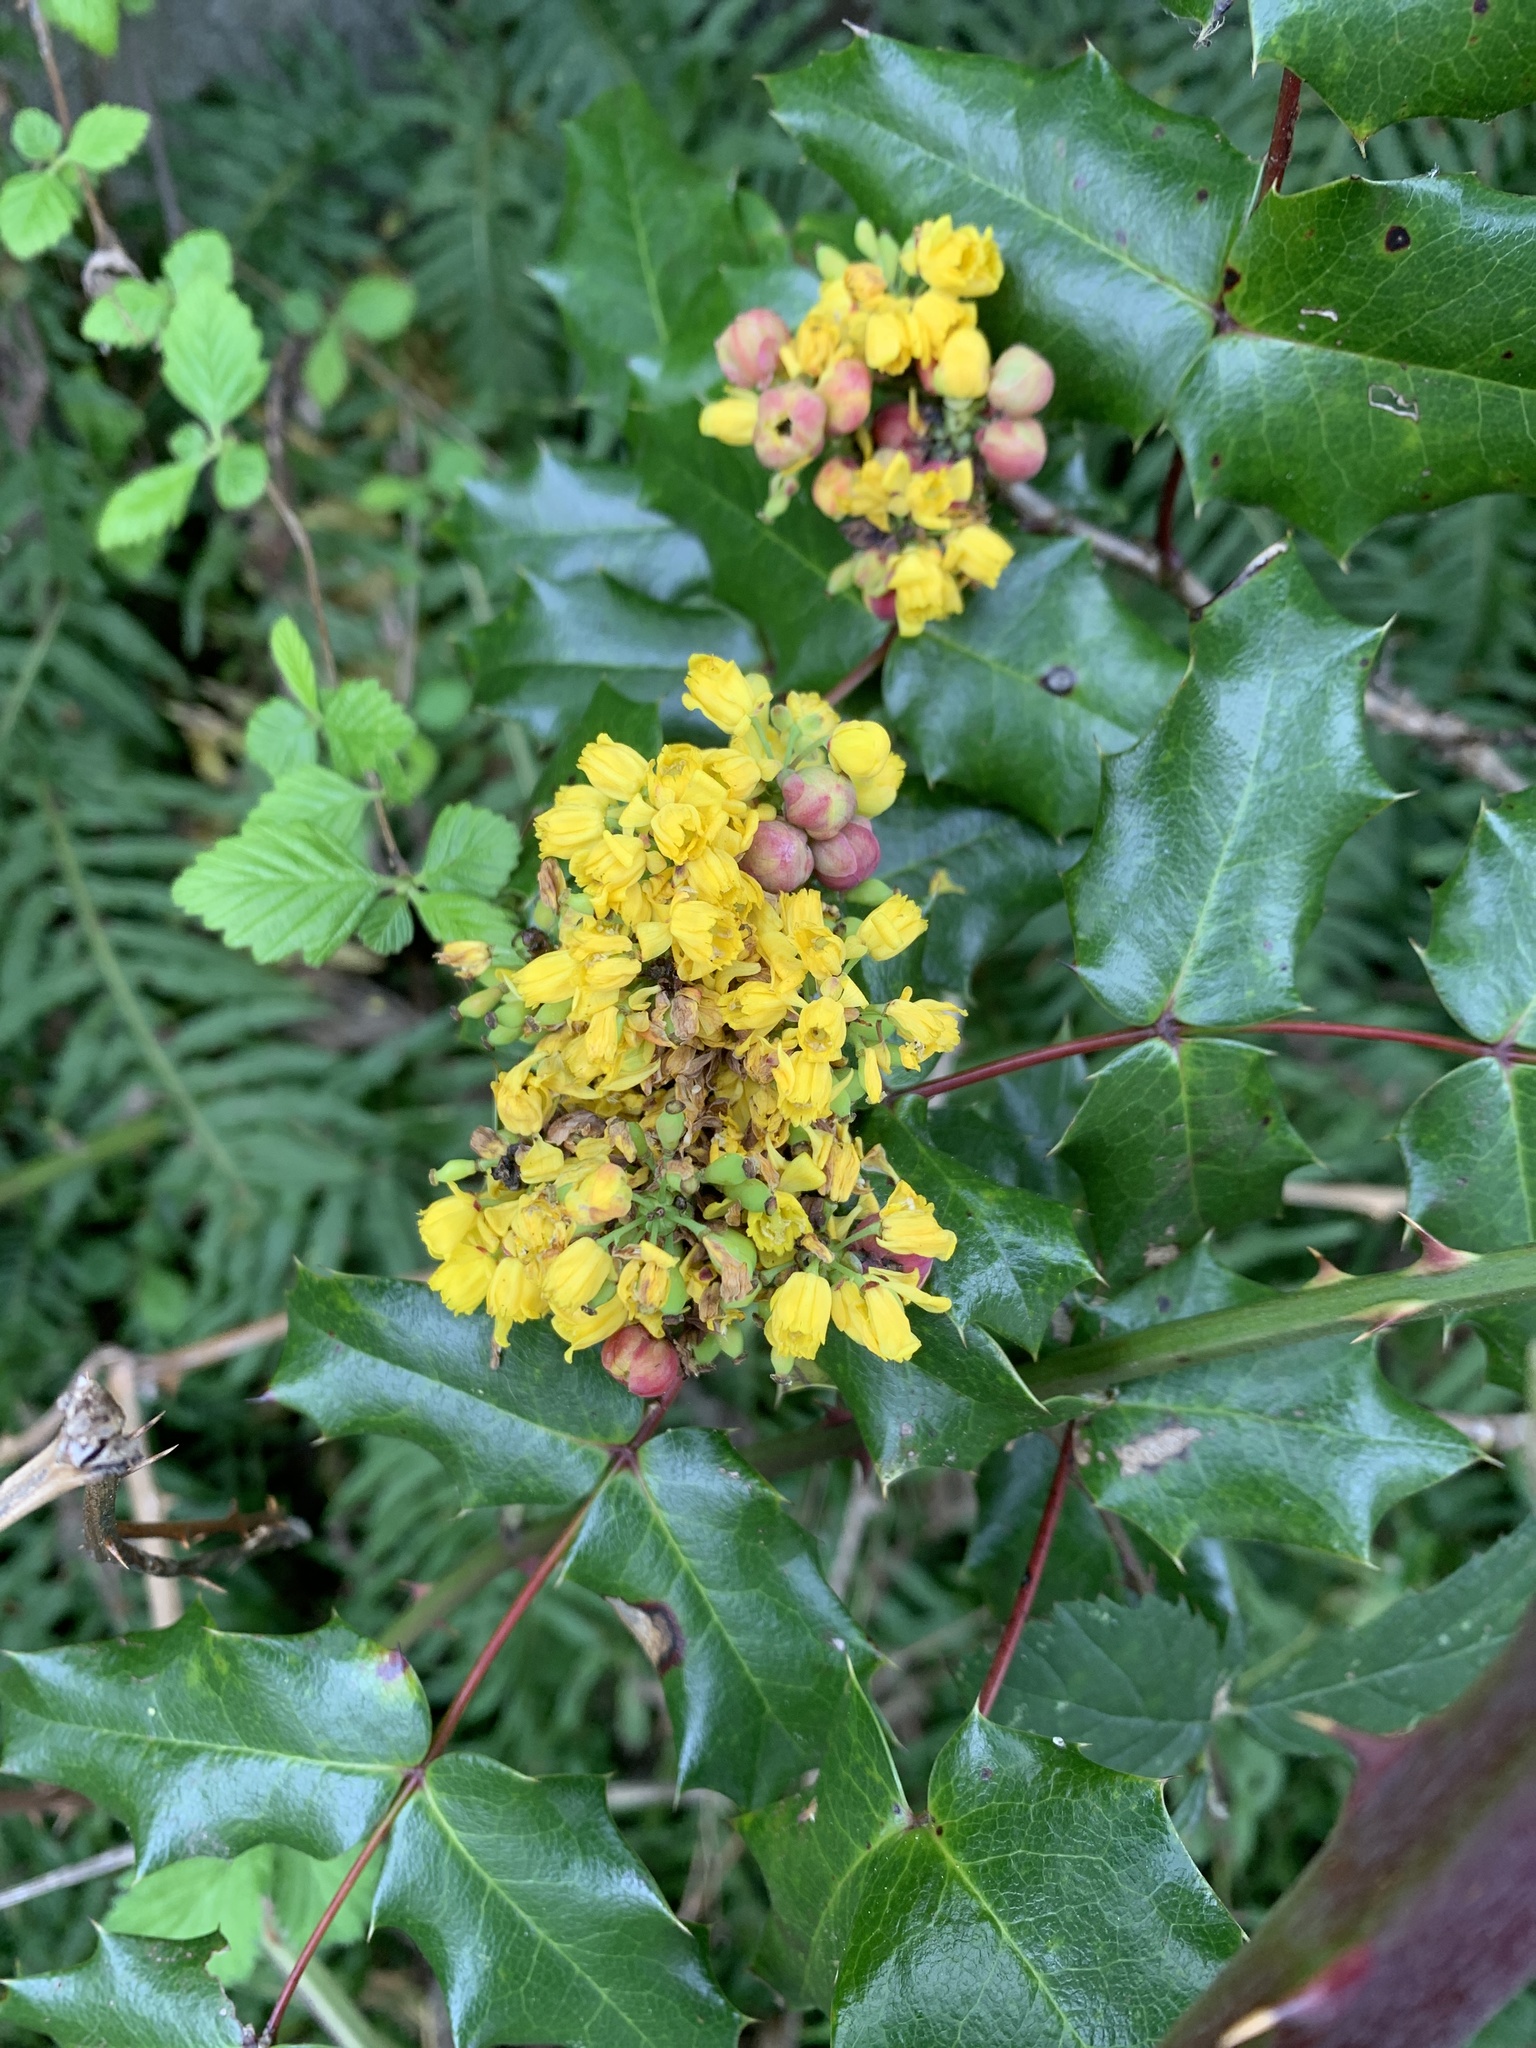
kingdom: Plantae
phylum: Tracheophyta
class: Magnoliopsida
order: Ranunculales
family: Berberidaceae
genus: Mahonia
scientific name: Mahonia aquifolium
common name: Oregon-grape
